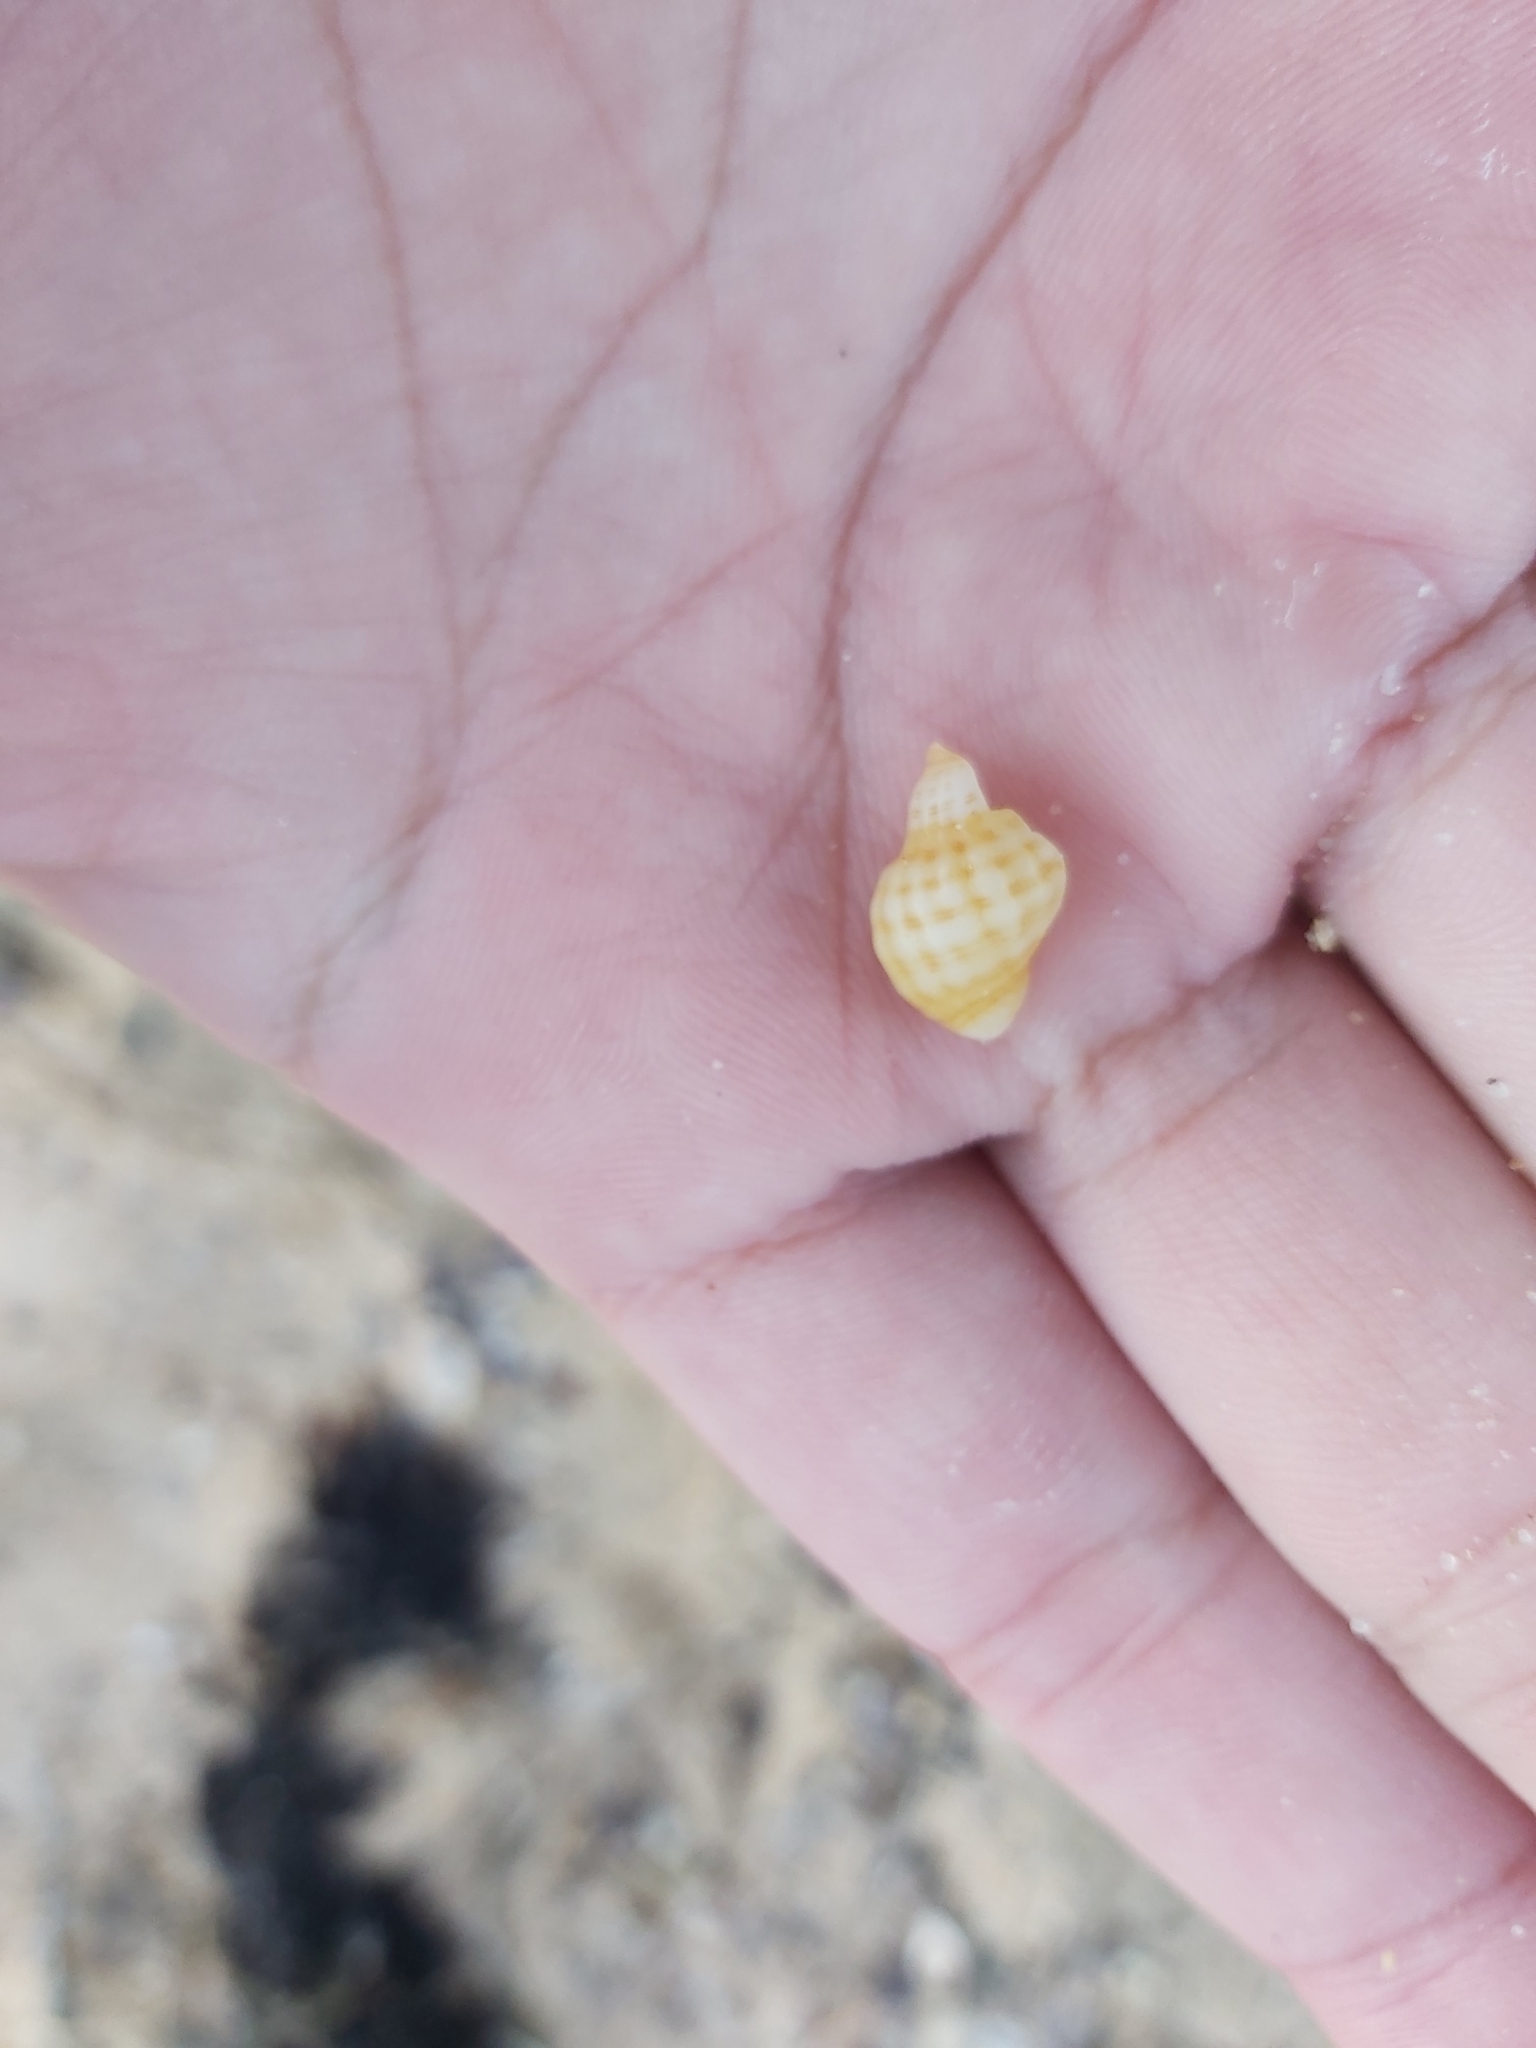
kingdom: Animalia
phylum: Mollusca
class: Gastropoda
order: Neogastropoda
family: Muricidae
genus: Agnewia
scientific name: Agnewia tritoniformis
